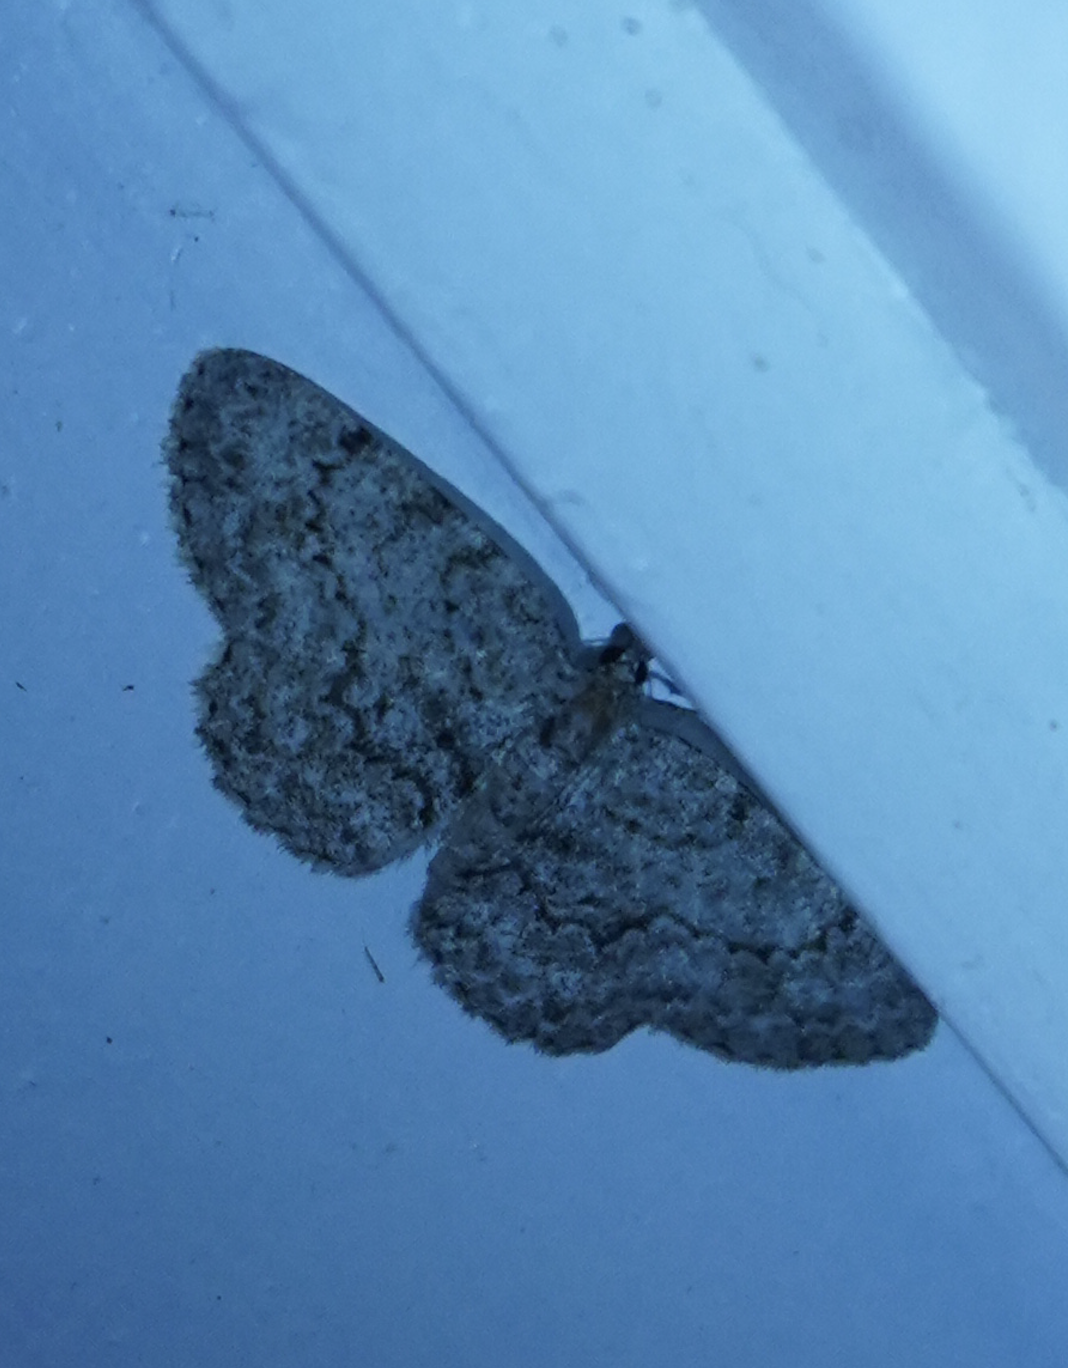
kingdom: Animalia
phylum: Arthropoda
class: Insecta
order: Lepidoptera
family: Geometridae
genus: Protoboarmia
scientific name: Protoboarmia porcelaria
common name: Porcelain gray
